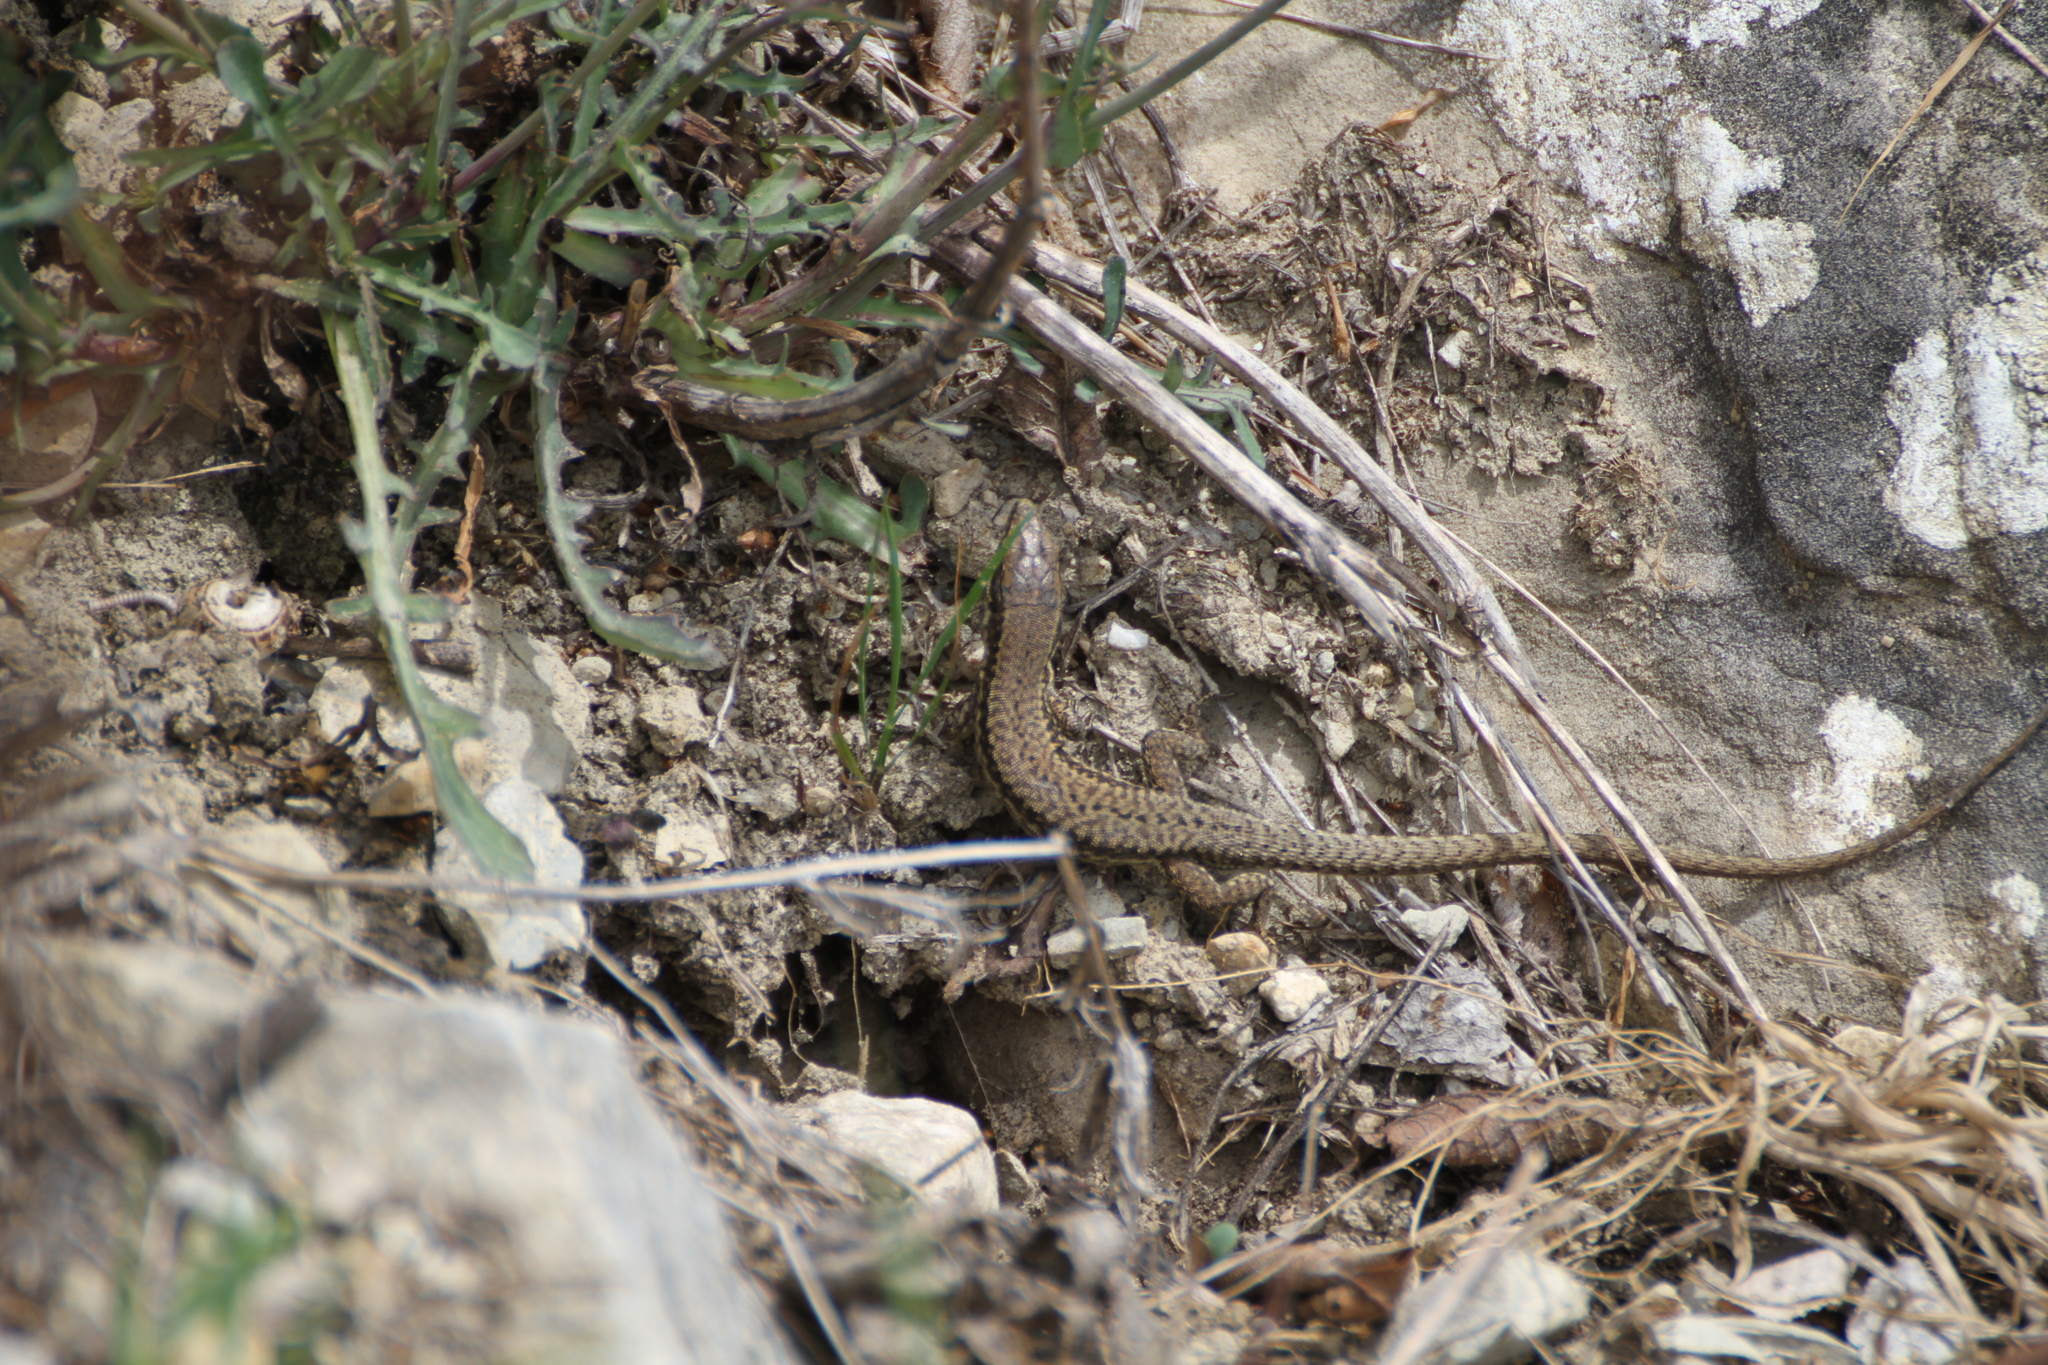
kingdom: Animalia
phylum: Chordata
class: Squamata
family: Lacertidae
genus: Podarcis
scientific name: Podarcis muralis
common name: Common wall lizard
